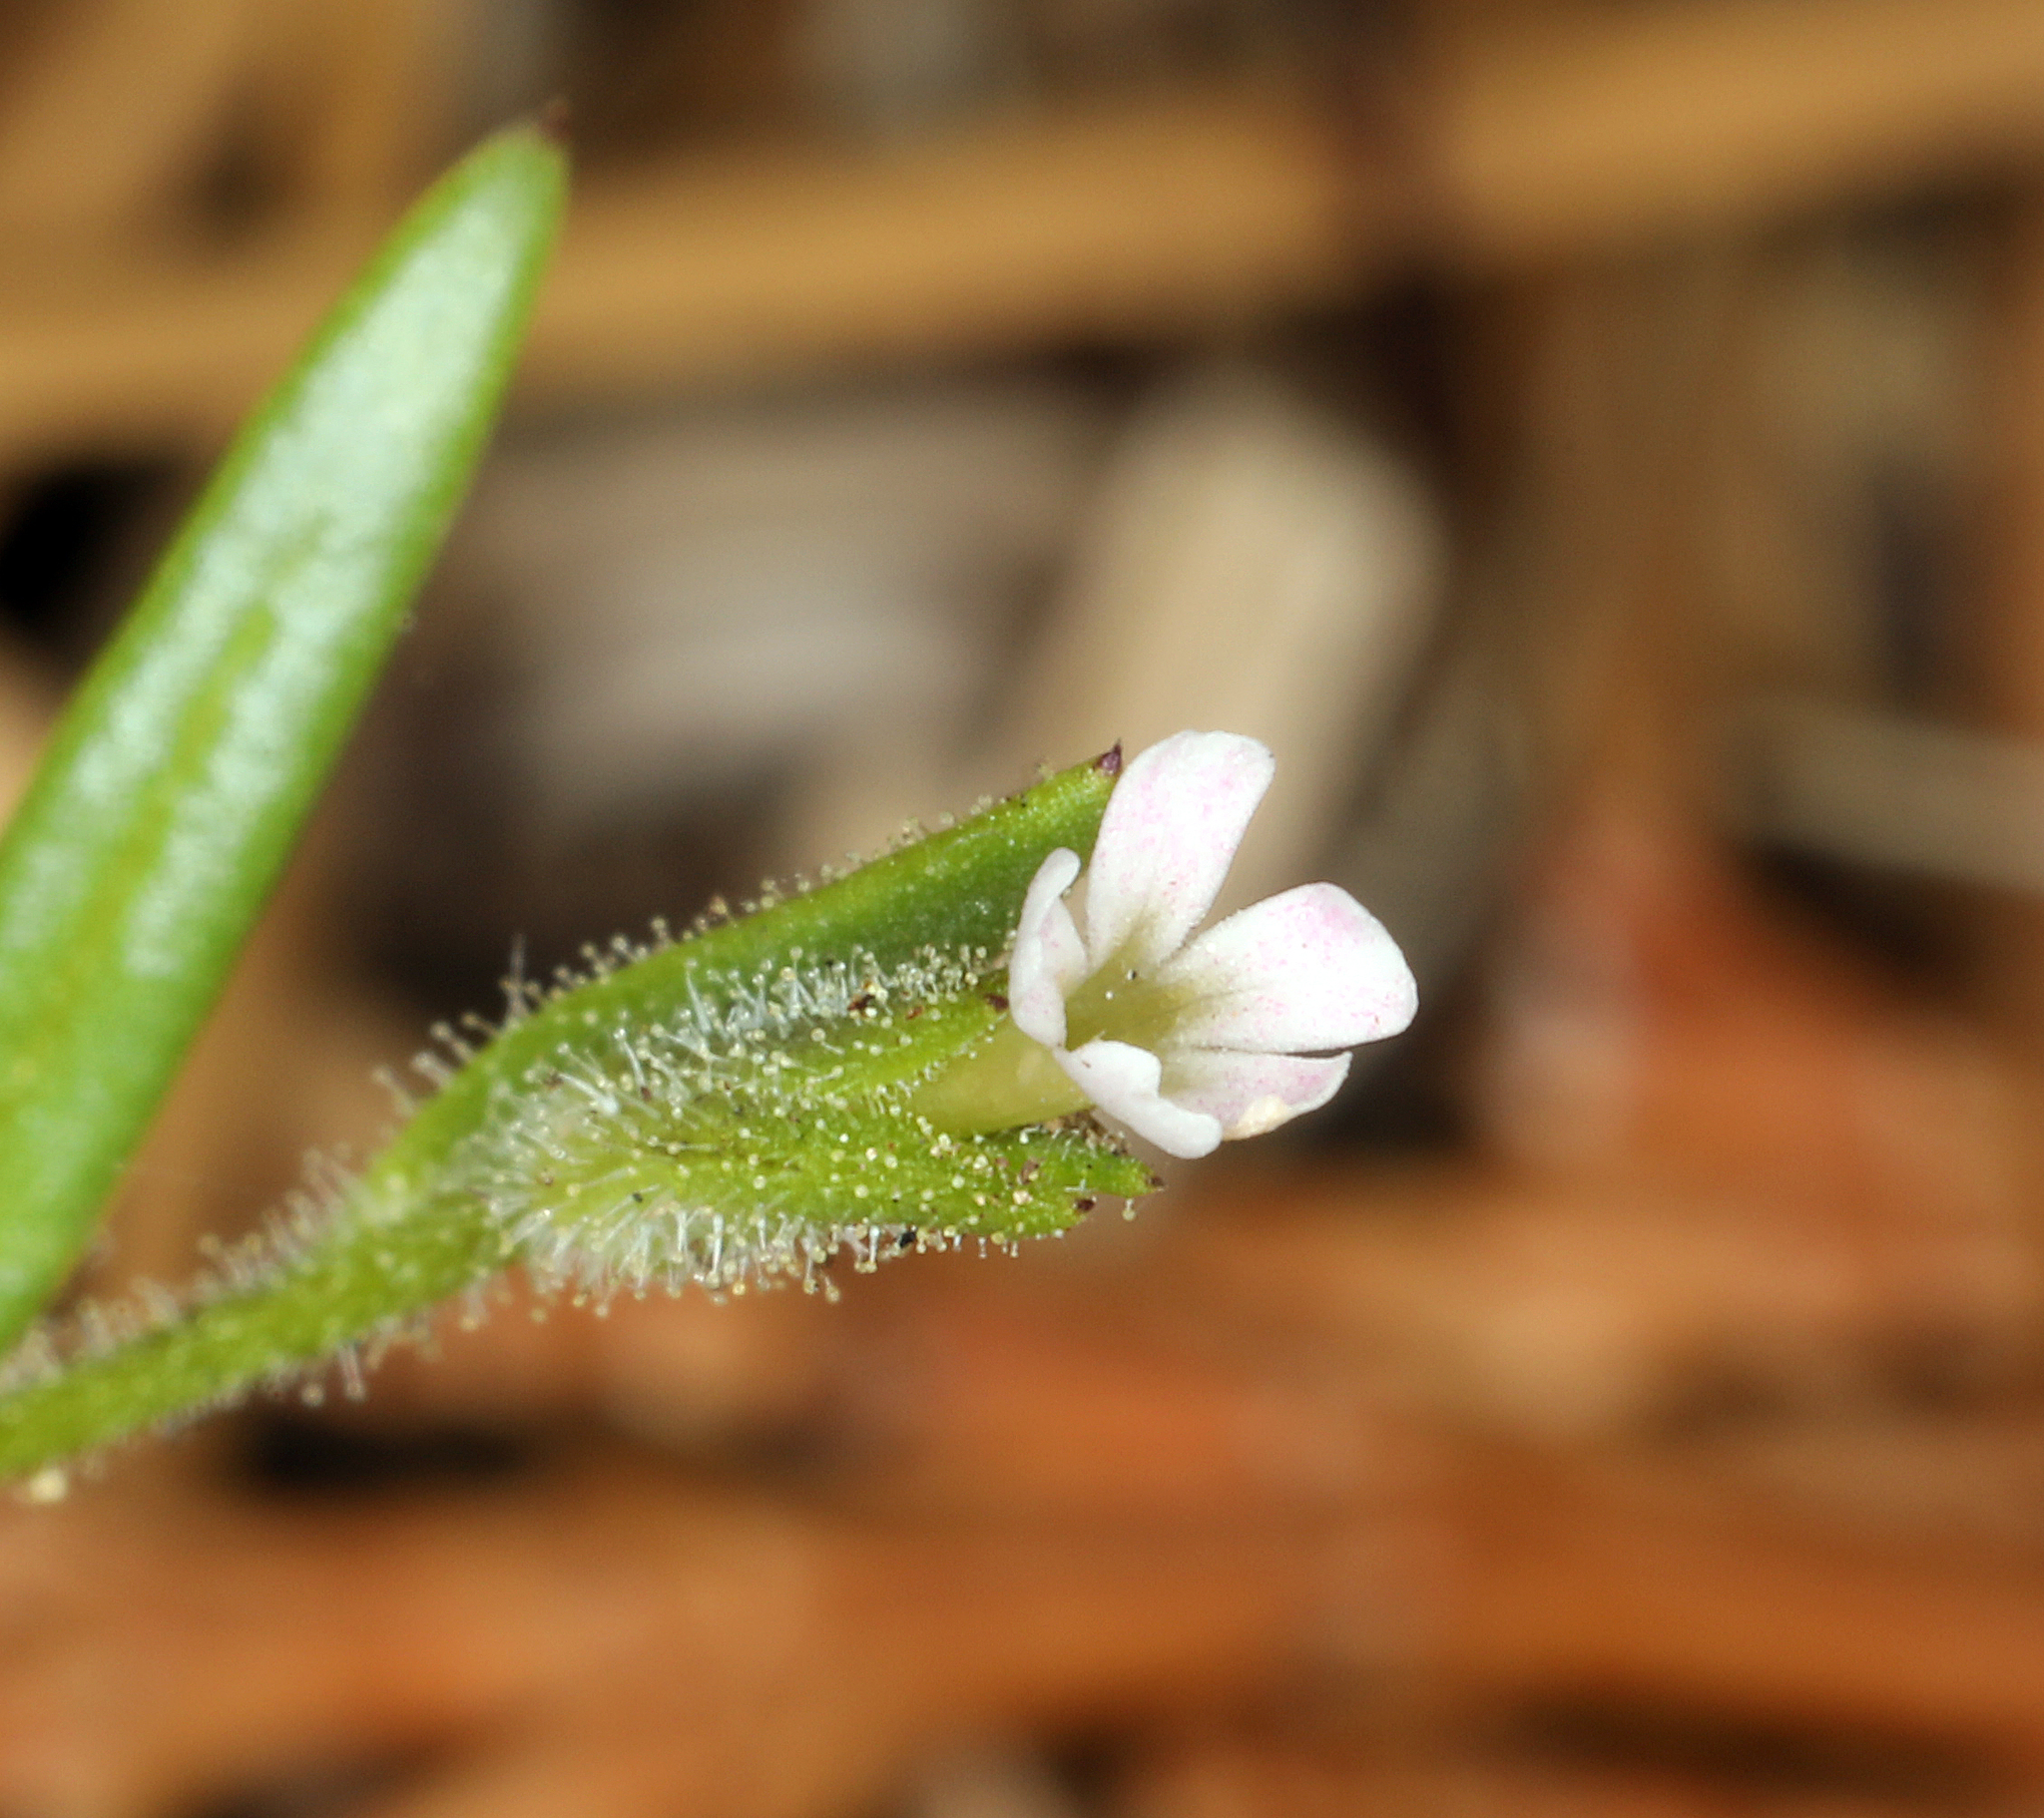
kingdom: Plantae
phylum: Tracheophyta
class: Magnoliopsida
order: Ericales
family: Polemoniaceae
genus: Phlox
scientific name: Phlox gracilis
